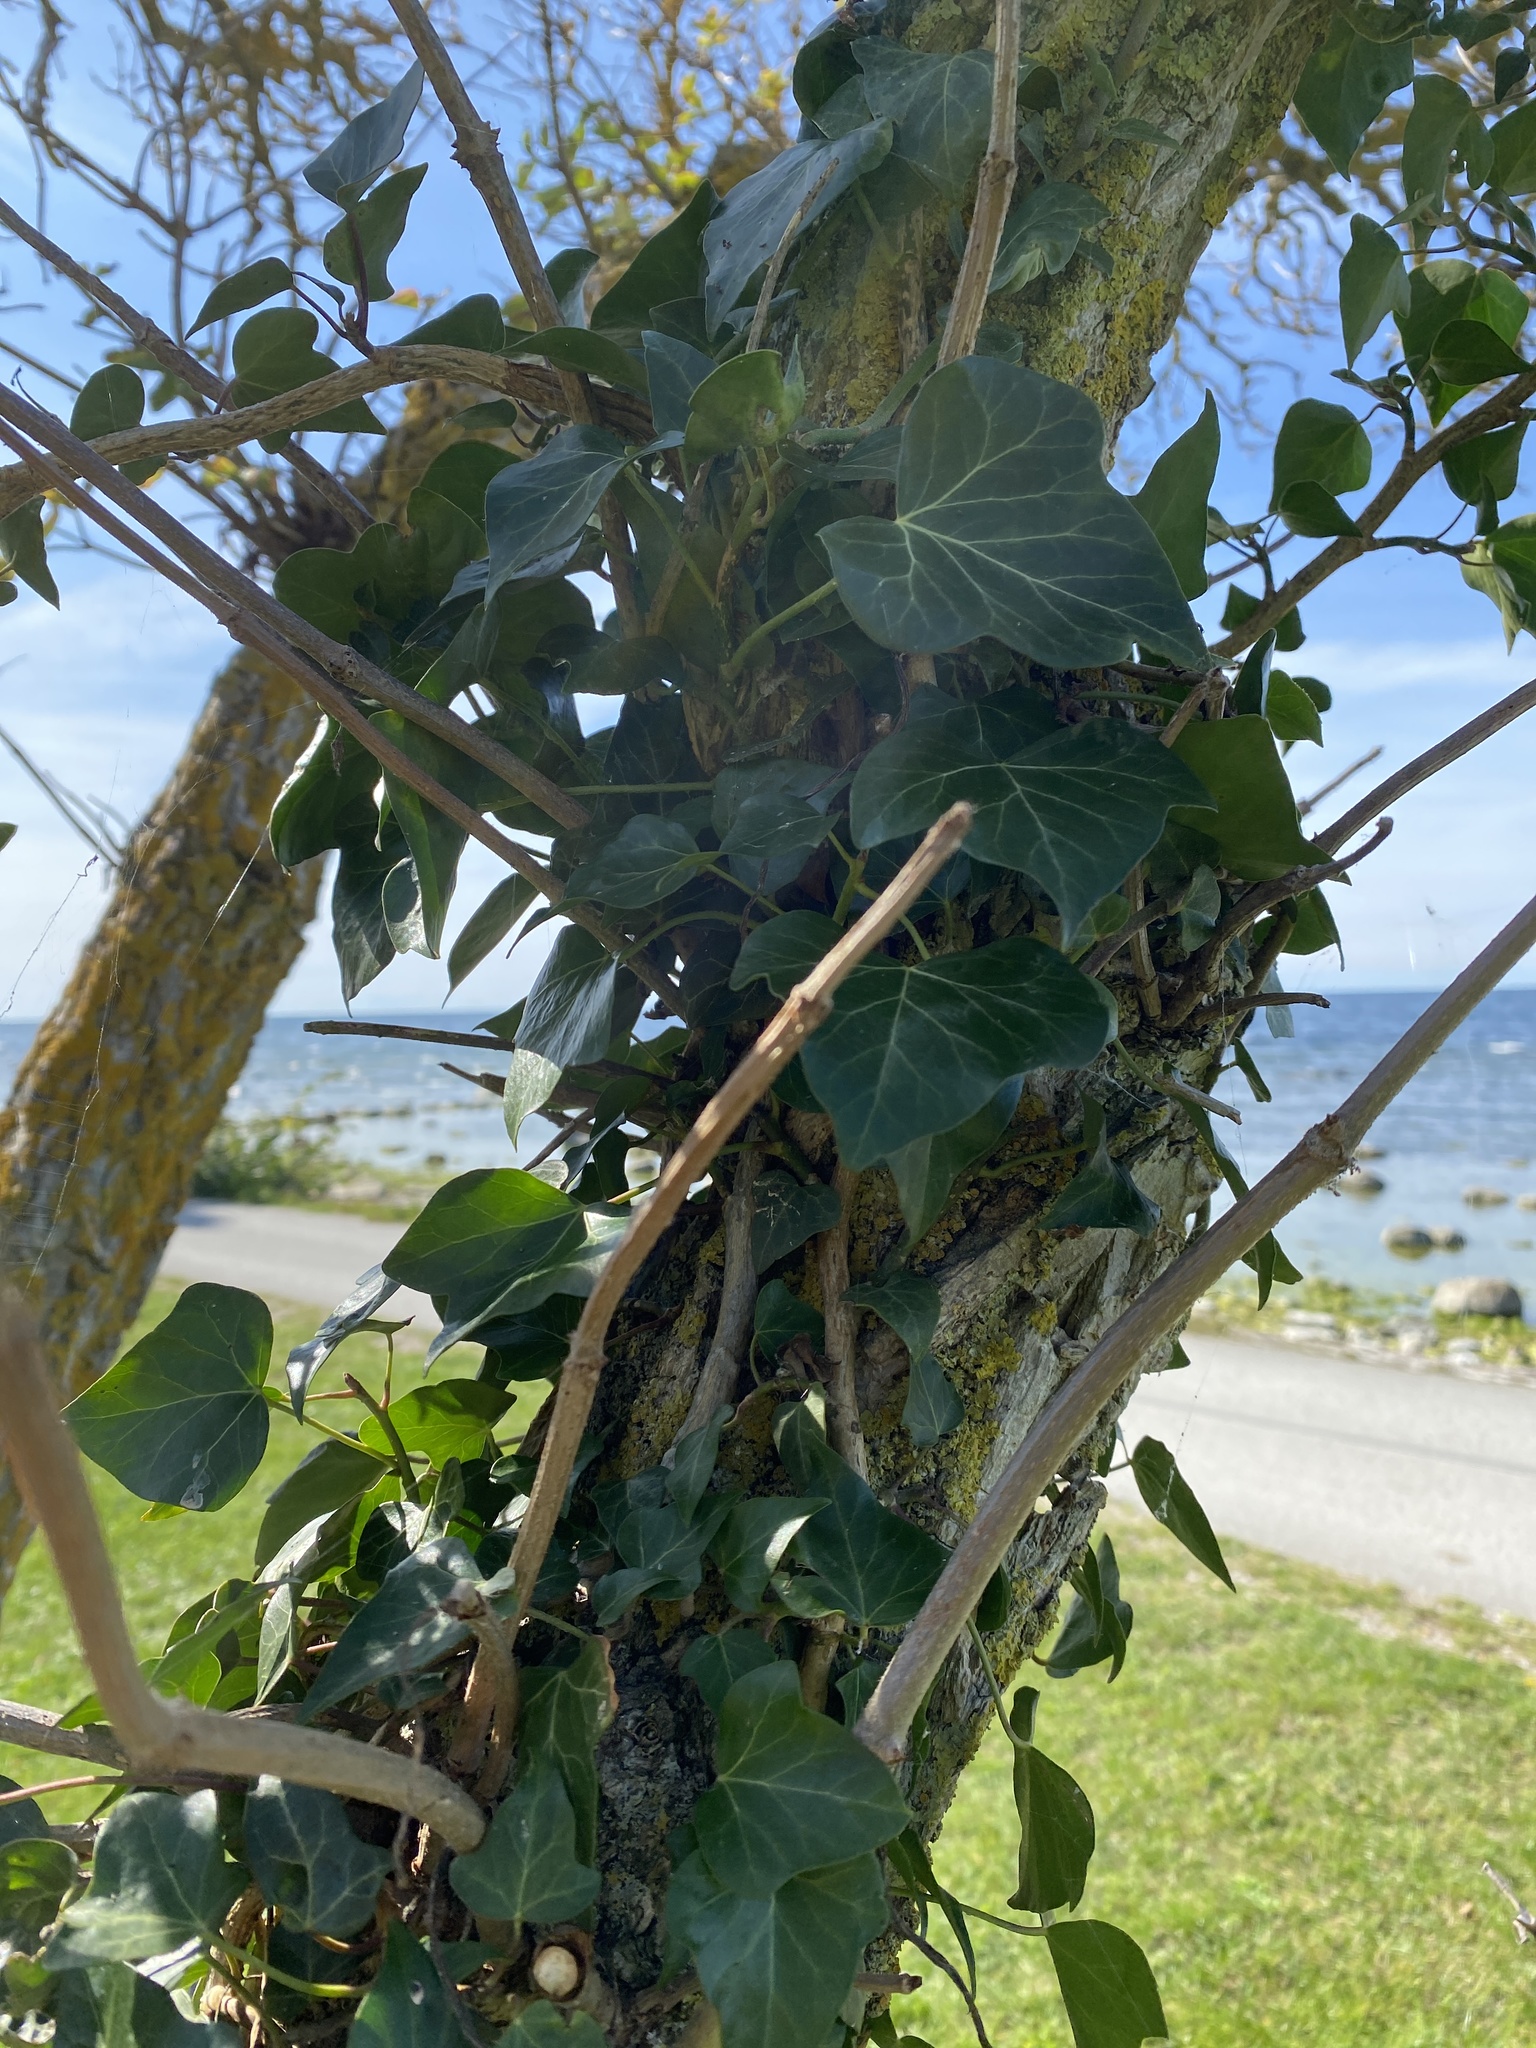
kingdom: Plantae
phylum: Tracheophyta
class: Magnoliopsida
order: Apiales
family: Araliaceae
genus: Hedera
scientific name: Hedera helix
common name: Ivy
